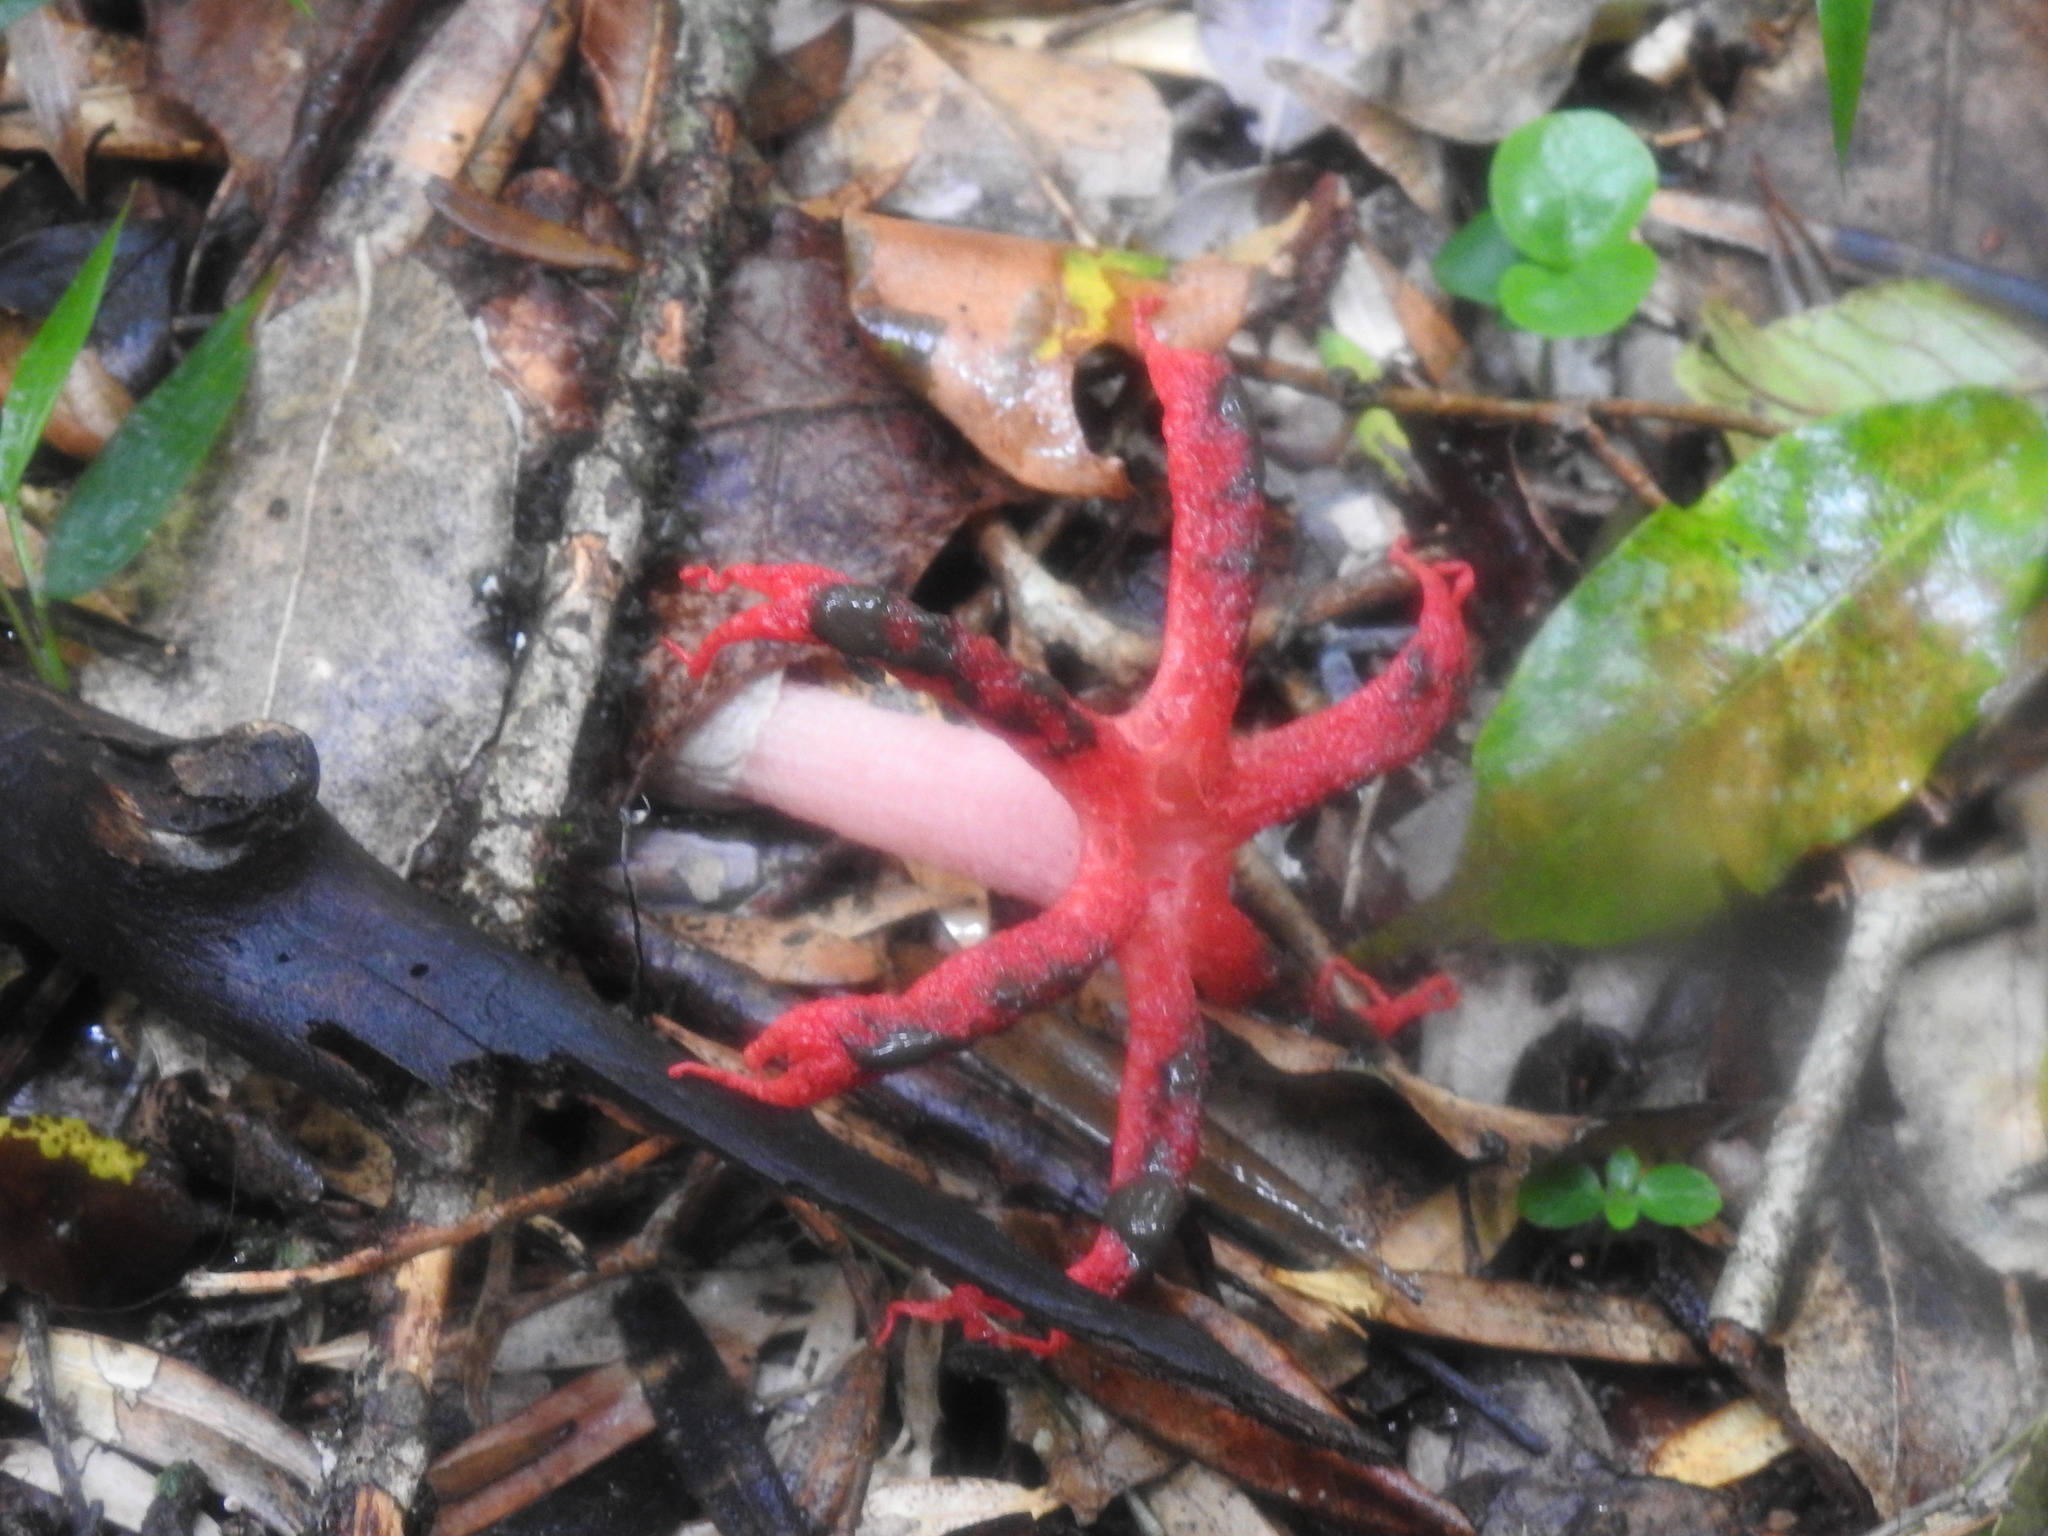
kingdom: Fungi
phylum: Basidiomycota
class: Agaricomycetes
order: Phallales
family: Phallaceae
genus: Clathrus
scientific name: Clathrus archeri
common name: Devil's fingers
